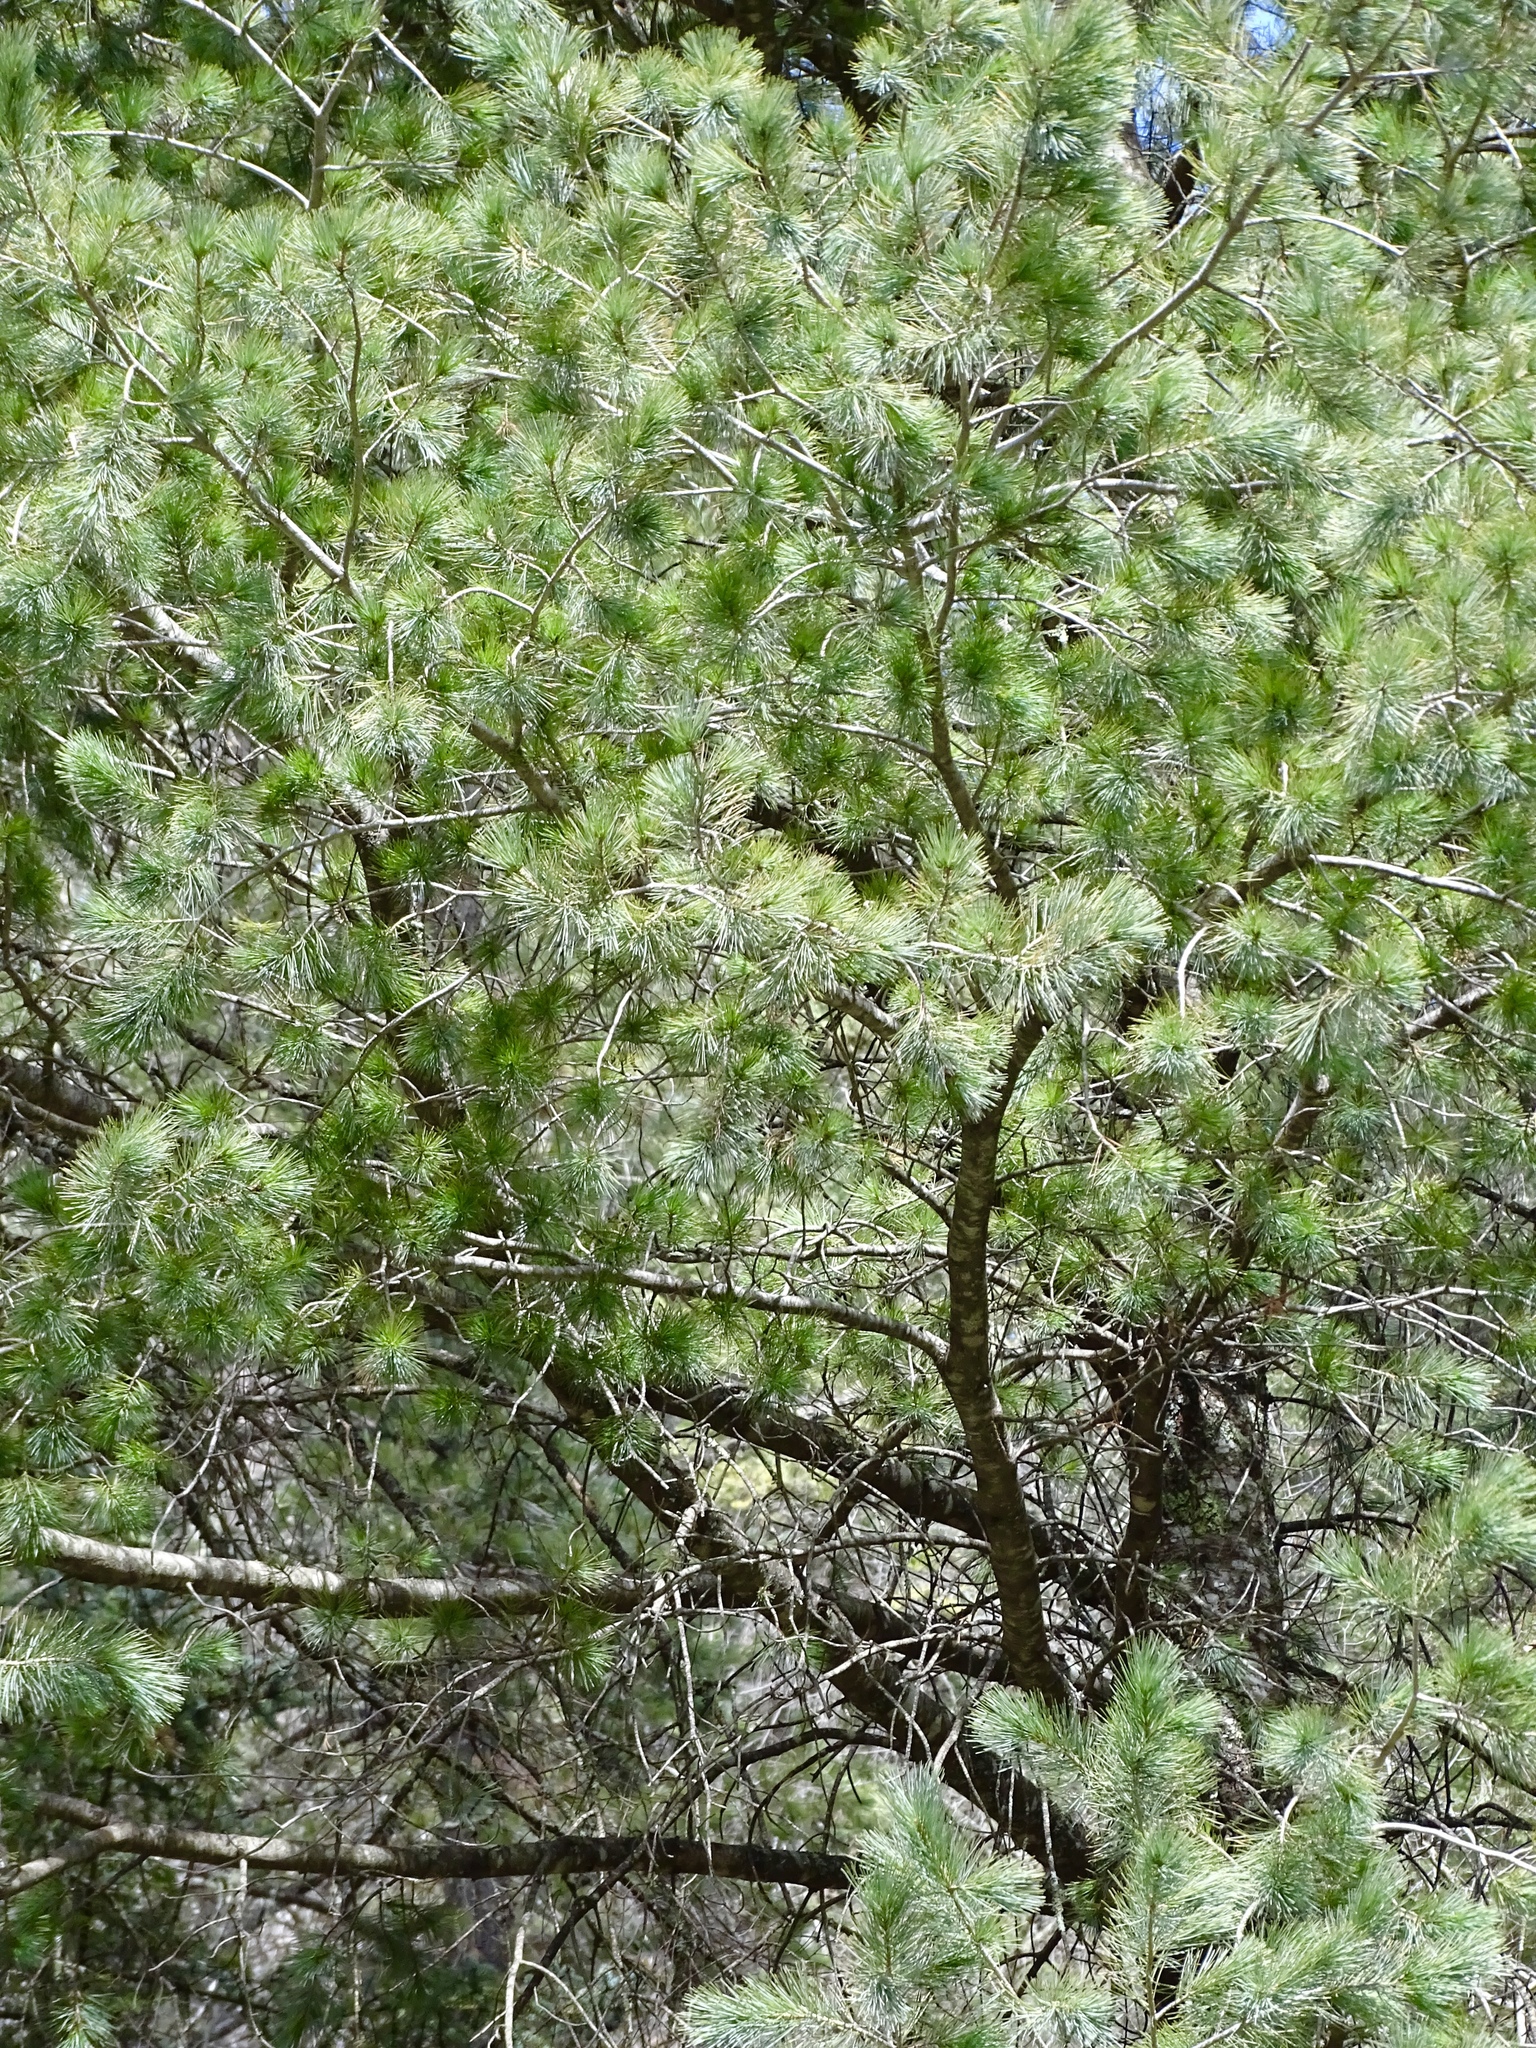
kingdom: Plantae
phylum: Tracheophyta
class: Pinopsida
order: Pinales
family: Pinaceae
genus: Pinus
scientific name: Pinus strobiformis
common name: Southwestern white pine
